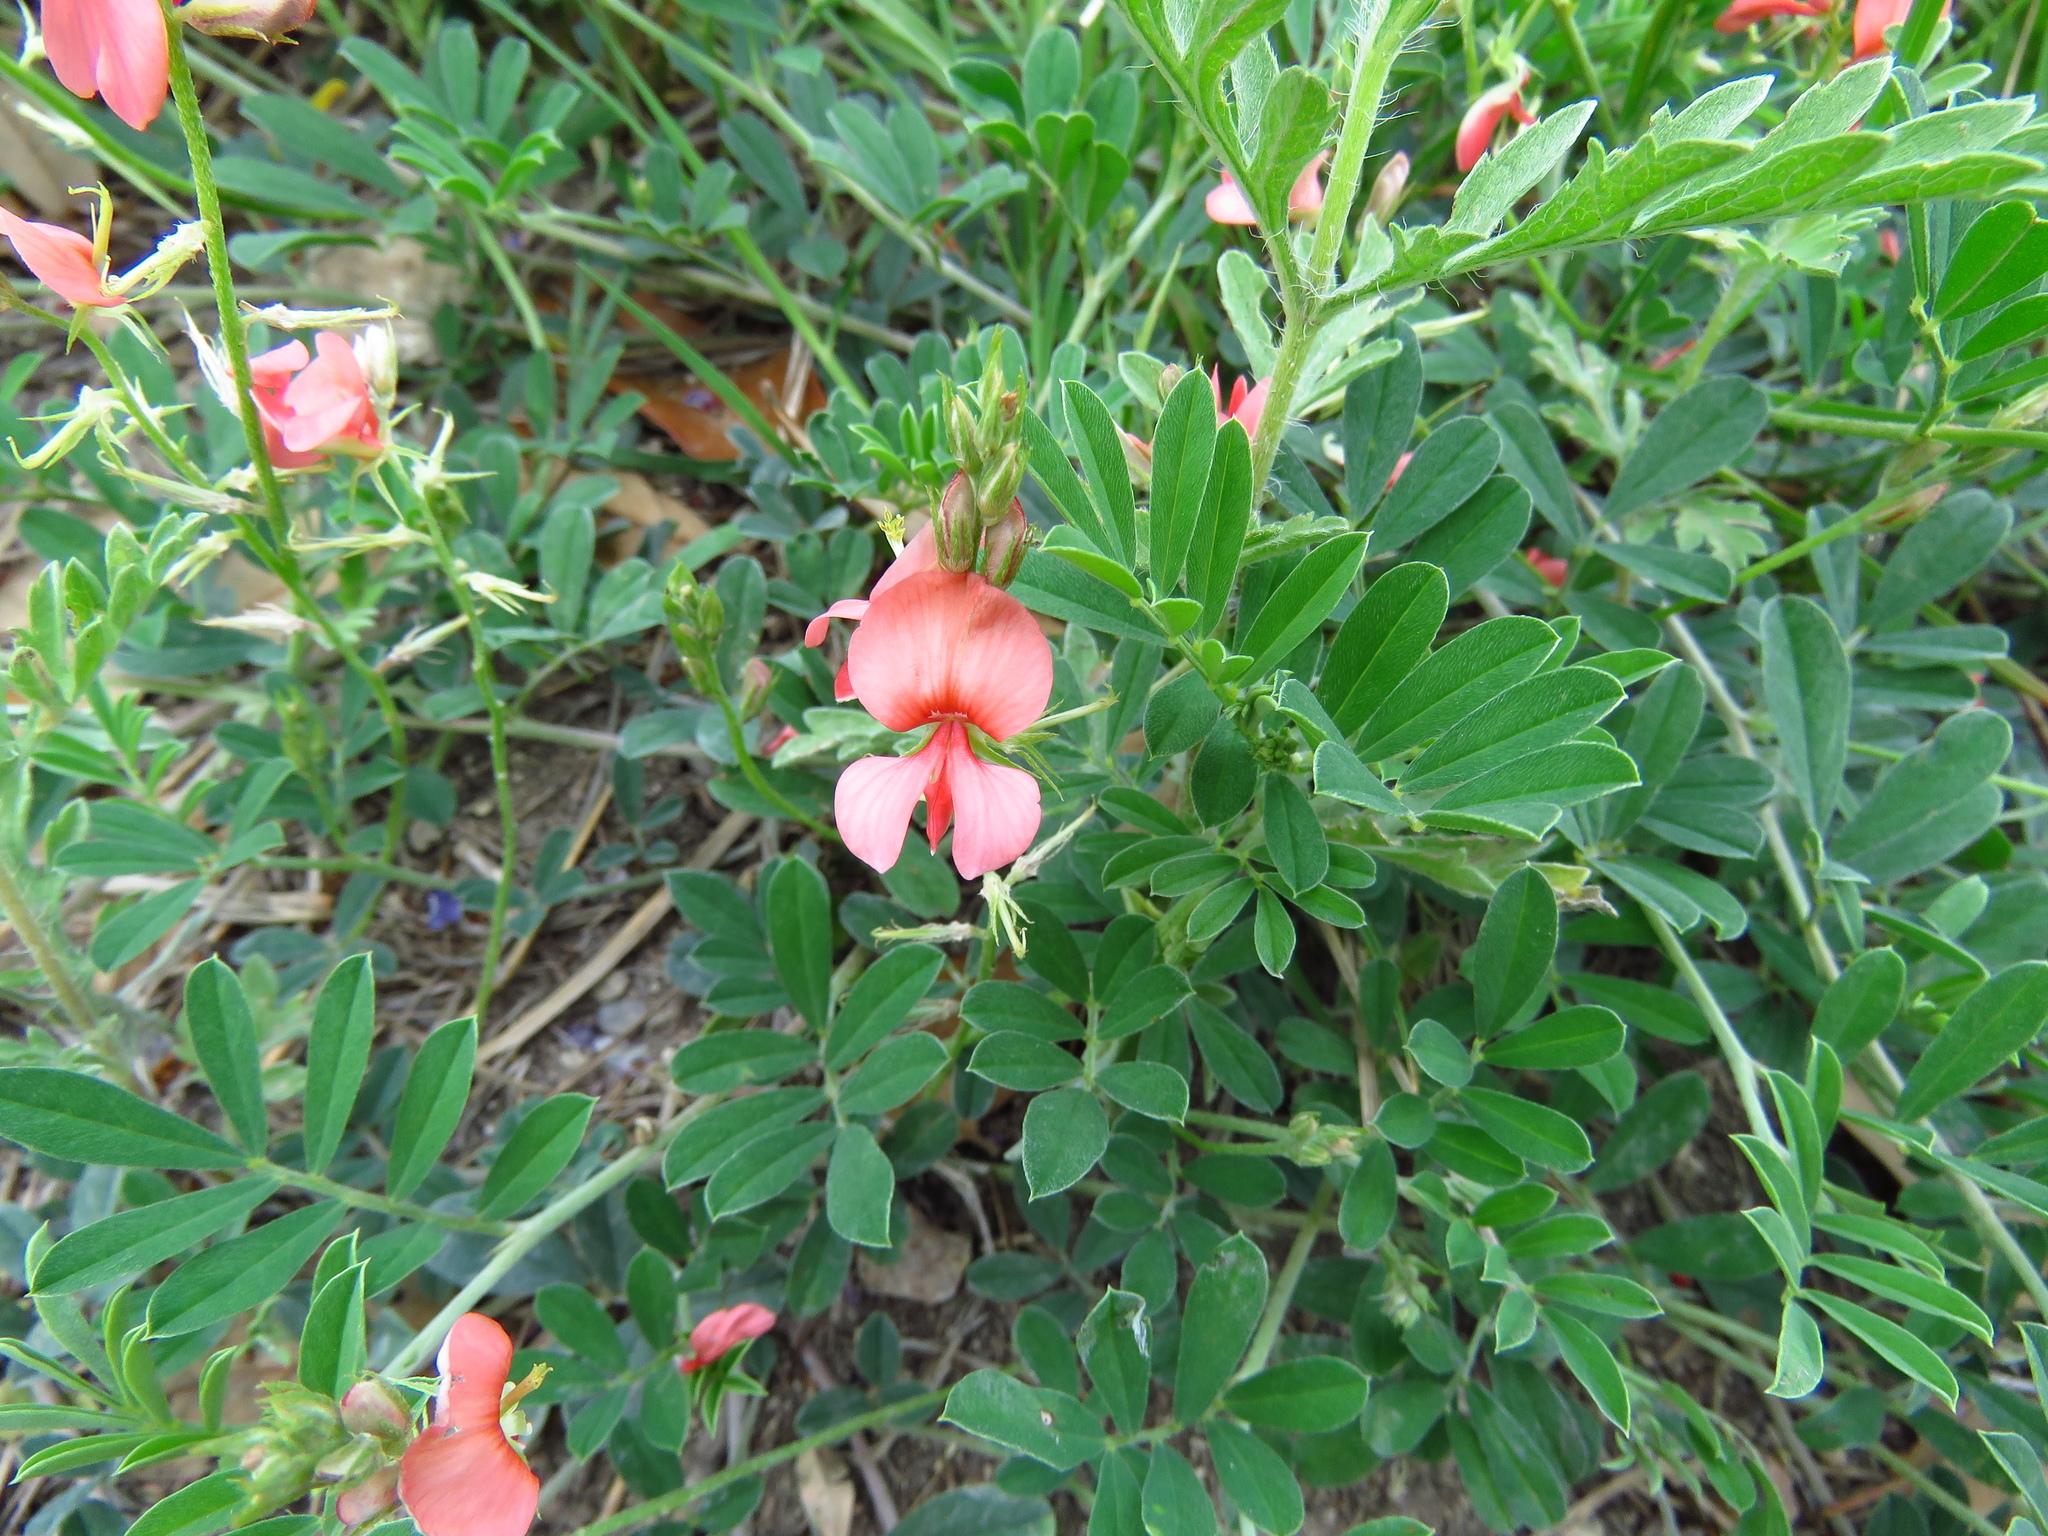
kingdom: Plantae
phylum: Tracheophyta
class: Magnoliopsida
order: Fabales
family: Fabaceae
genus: Indigofera
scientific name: Indigofera miniata
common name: Coast indigo
